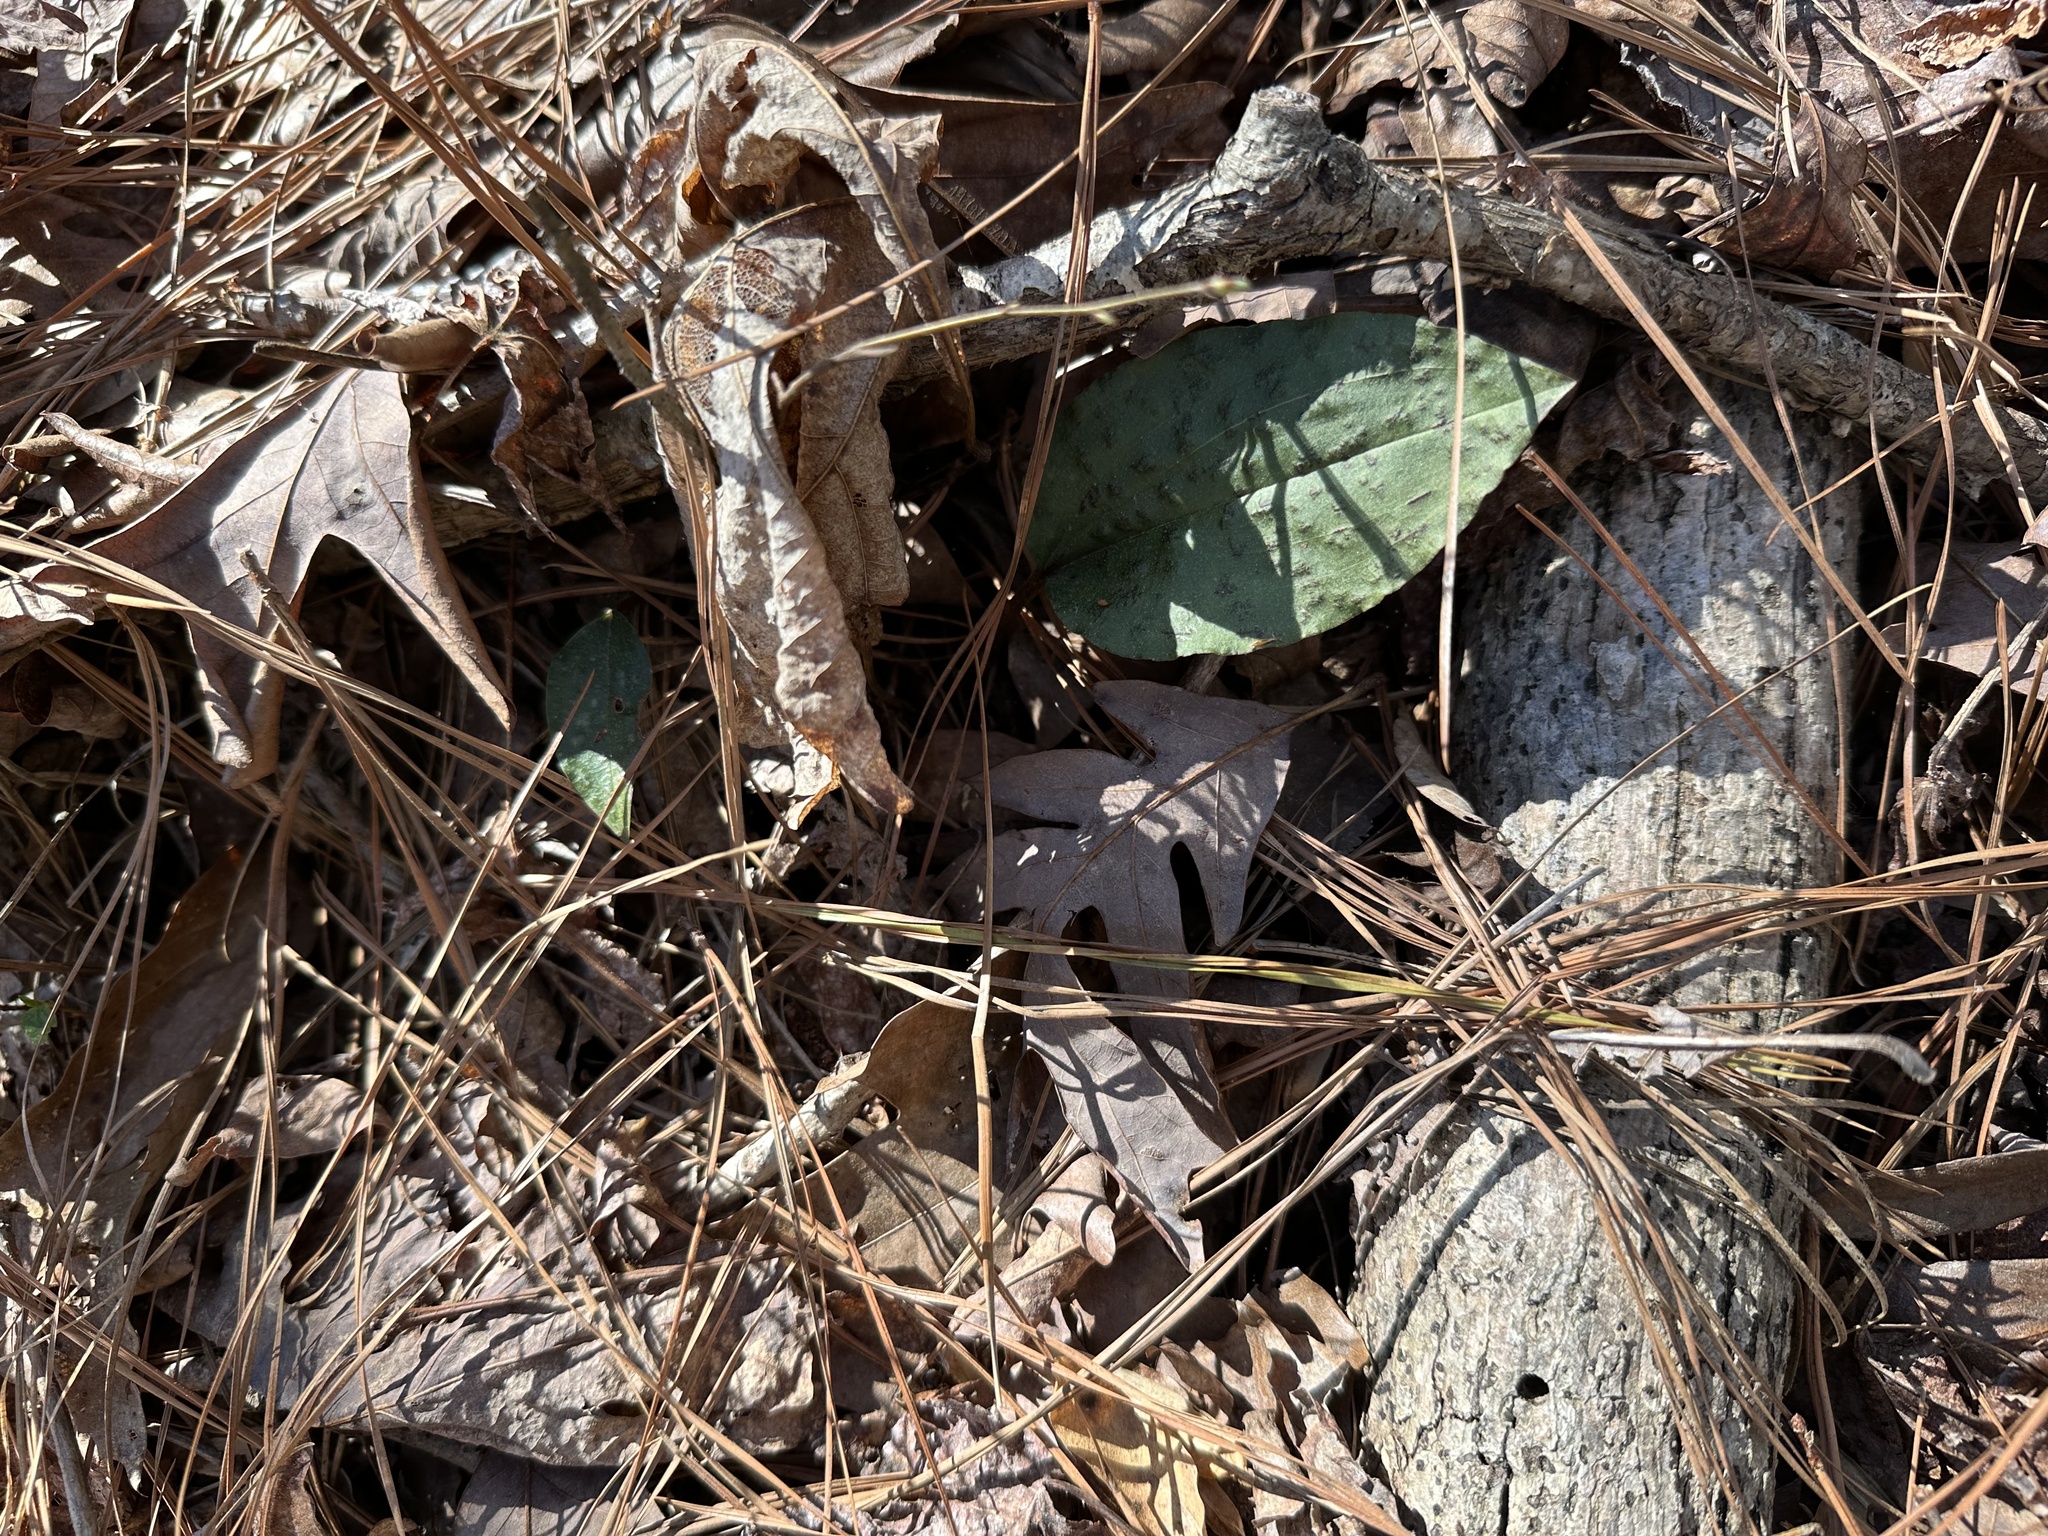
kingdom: Plantae
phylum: Tracheophyta
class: Liliopsida
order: Asparagales
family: Orchidaceae
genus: Tipularia
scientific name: Tipularia discolor
